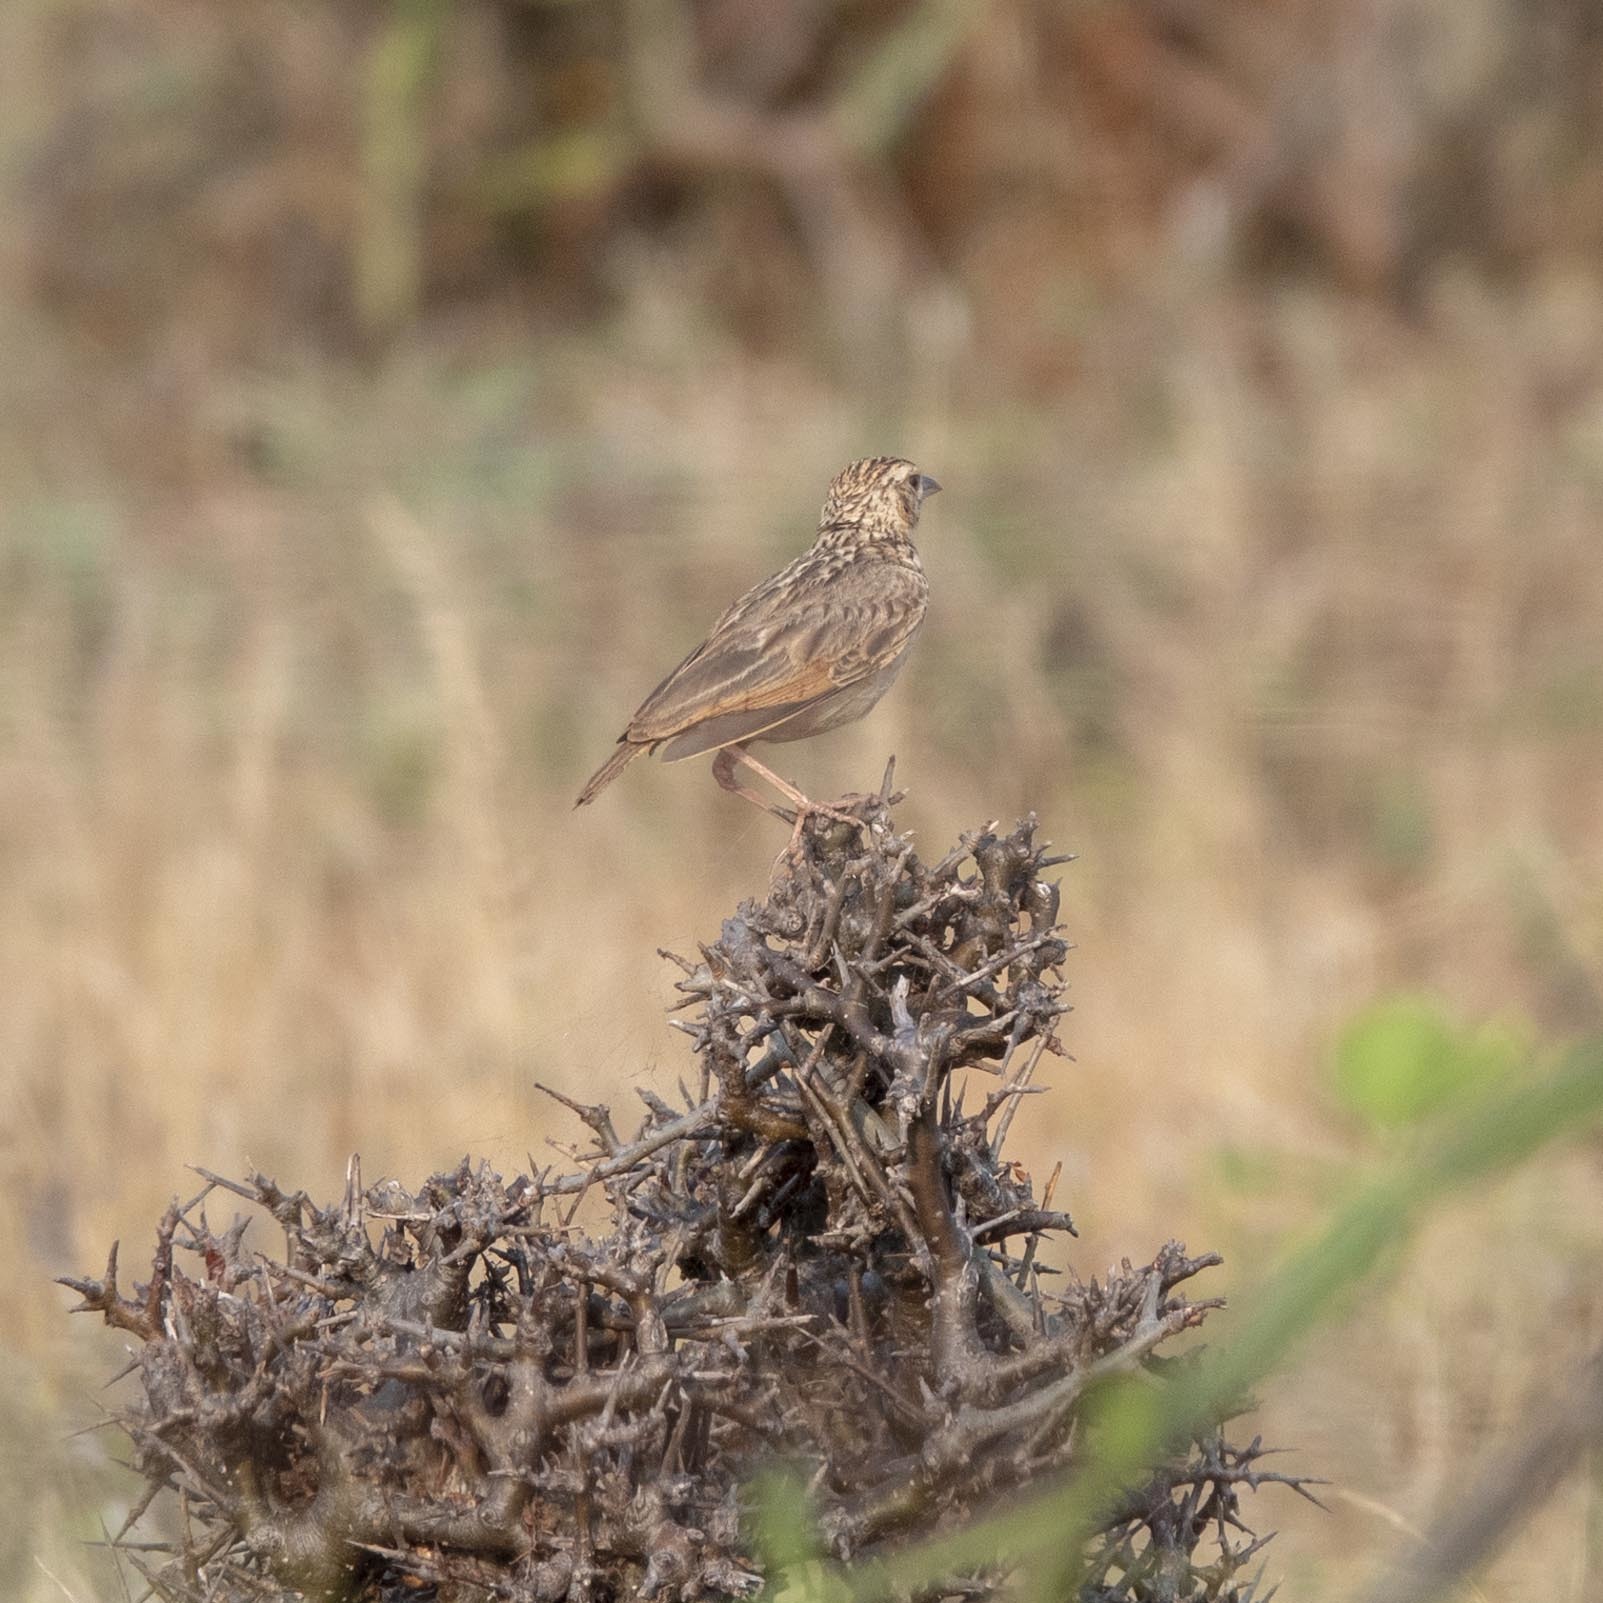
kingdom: Animalia
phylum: Chordata
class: Aves
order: Passeriformes
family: Alaudidae
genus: Mirafra
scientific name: Mirafra affinis
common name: Jerdon's bushlark
